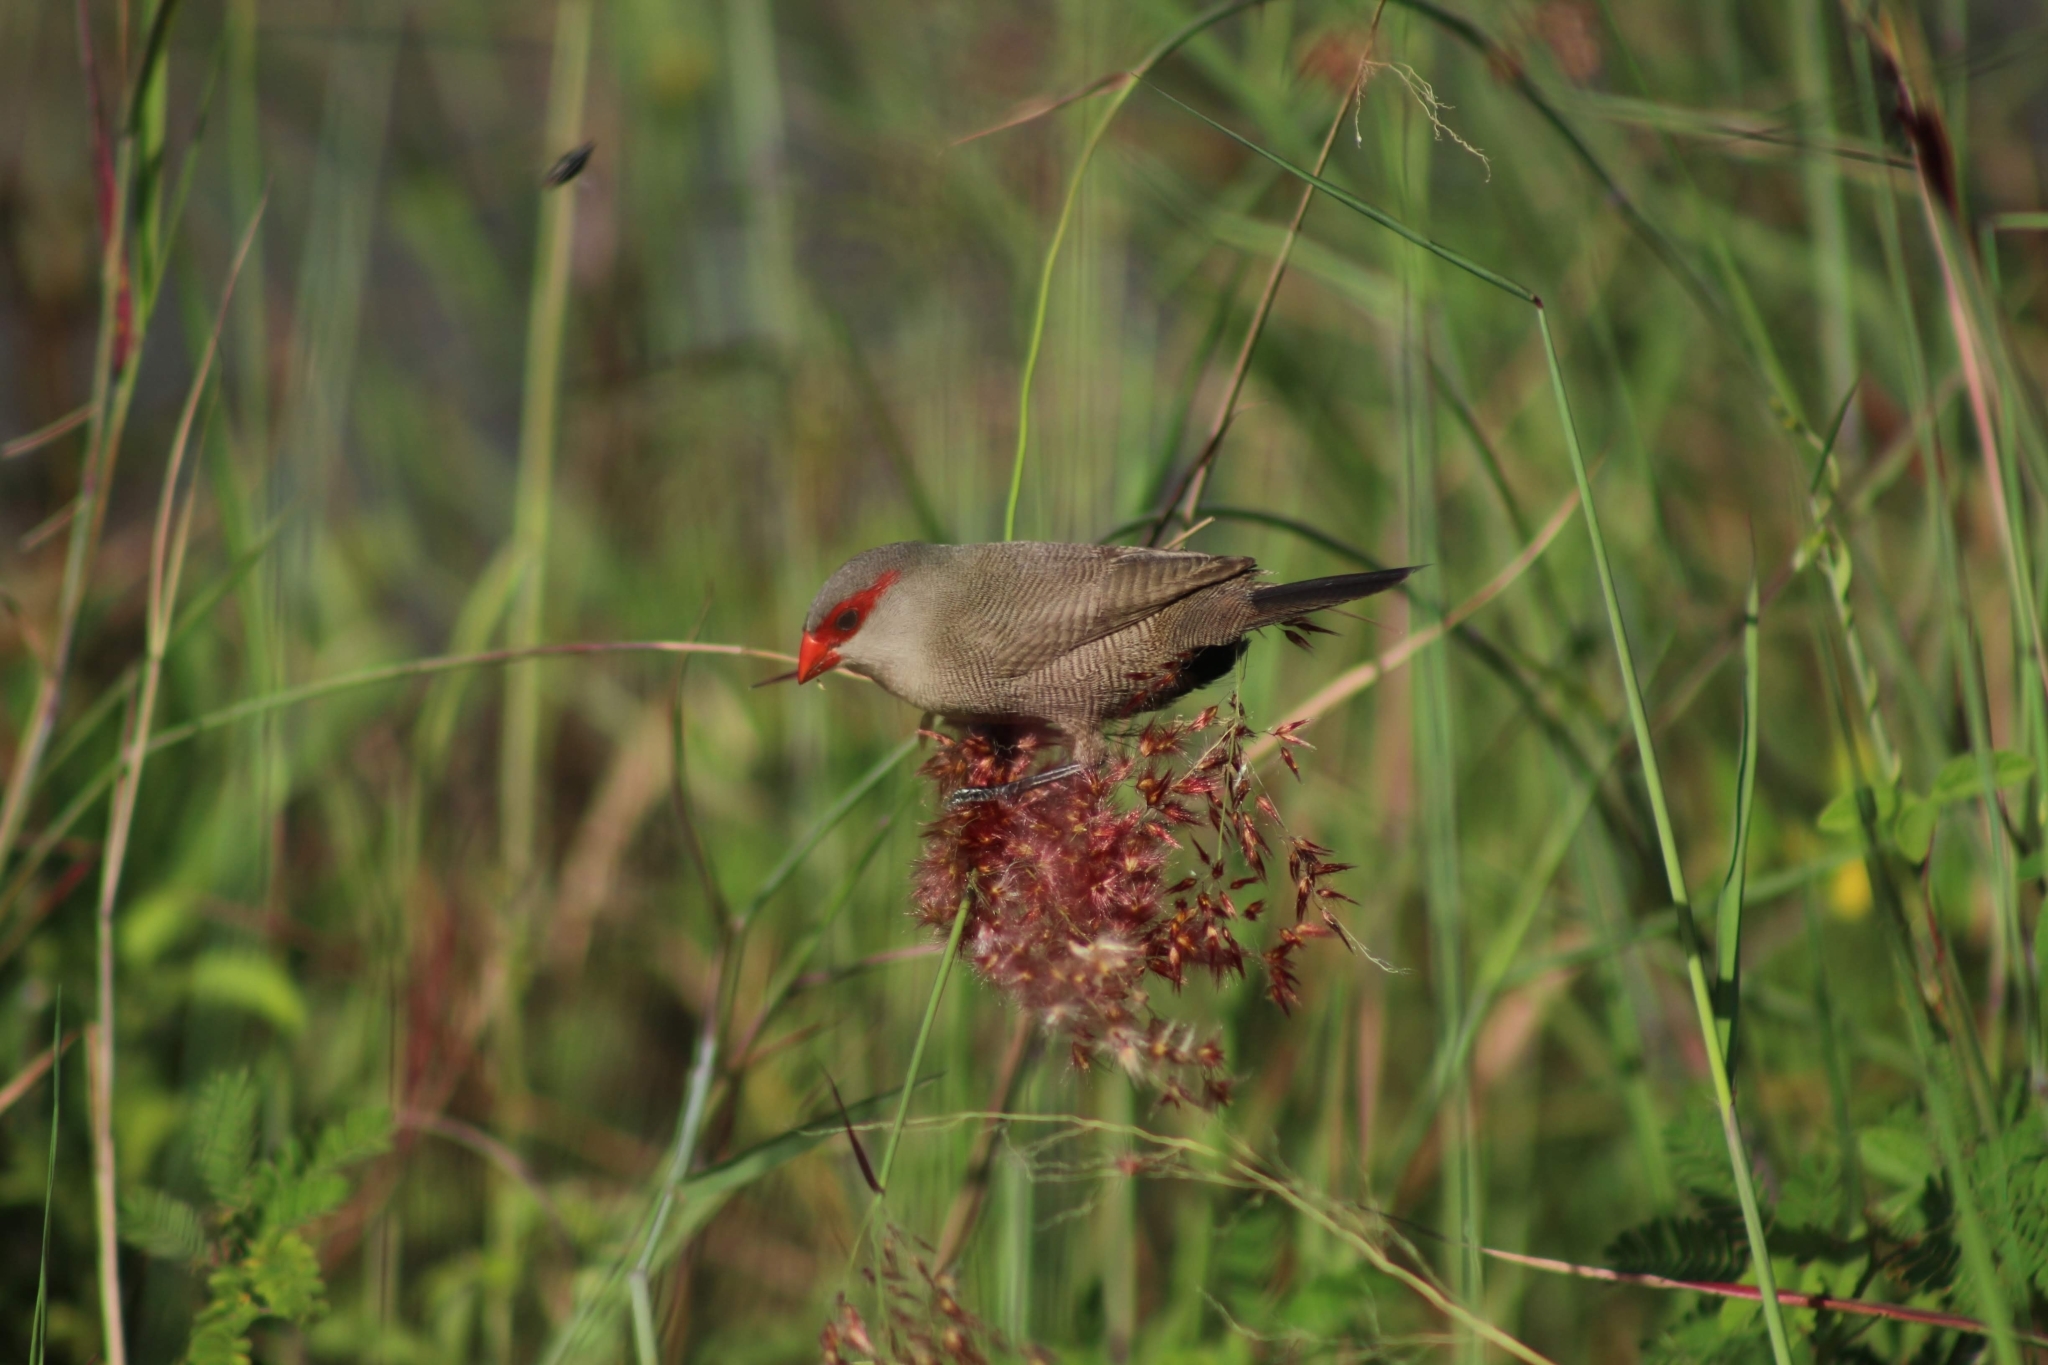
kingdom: Animalia
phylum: Chordata
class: Aves
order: Passeriformes
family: Estrildidae
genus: Estrilda
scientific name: Estrilda astrild
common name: Common waxbill
